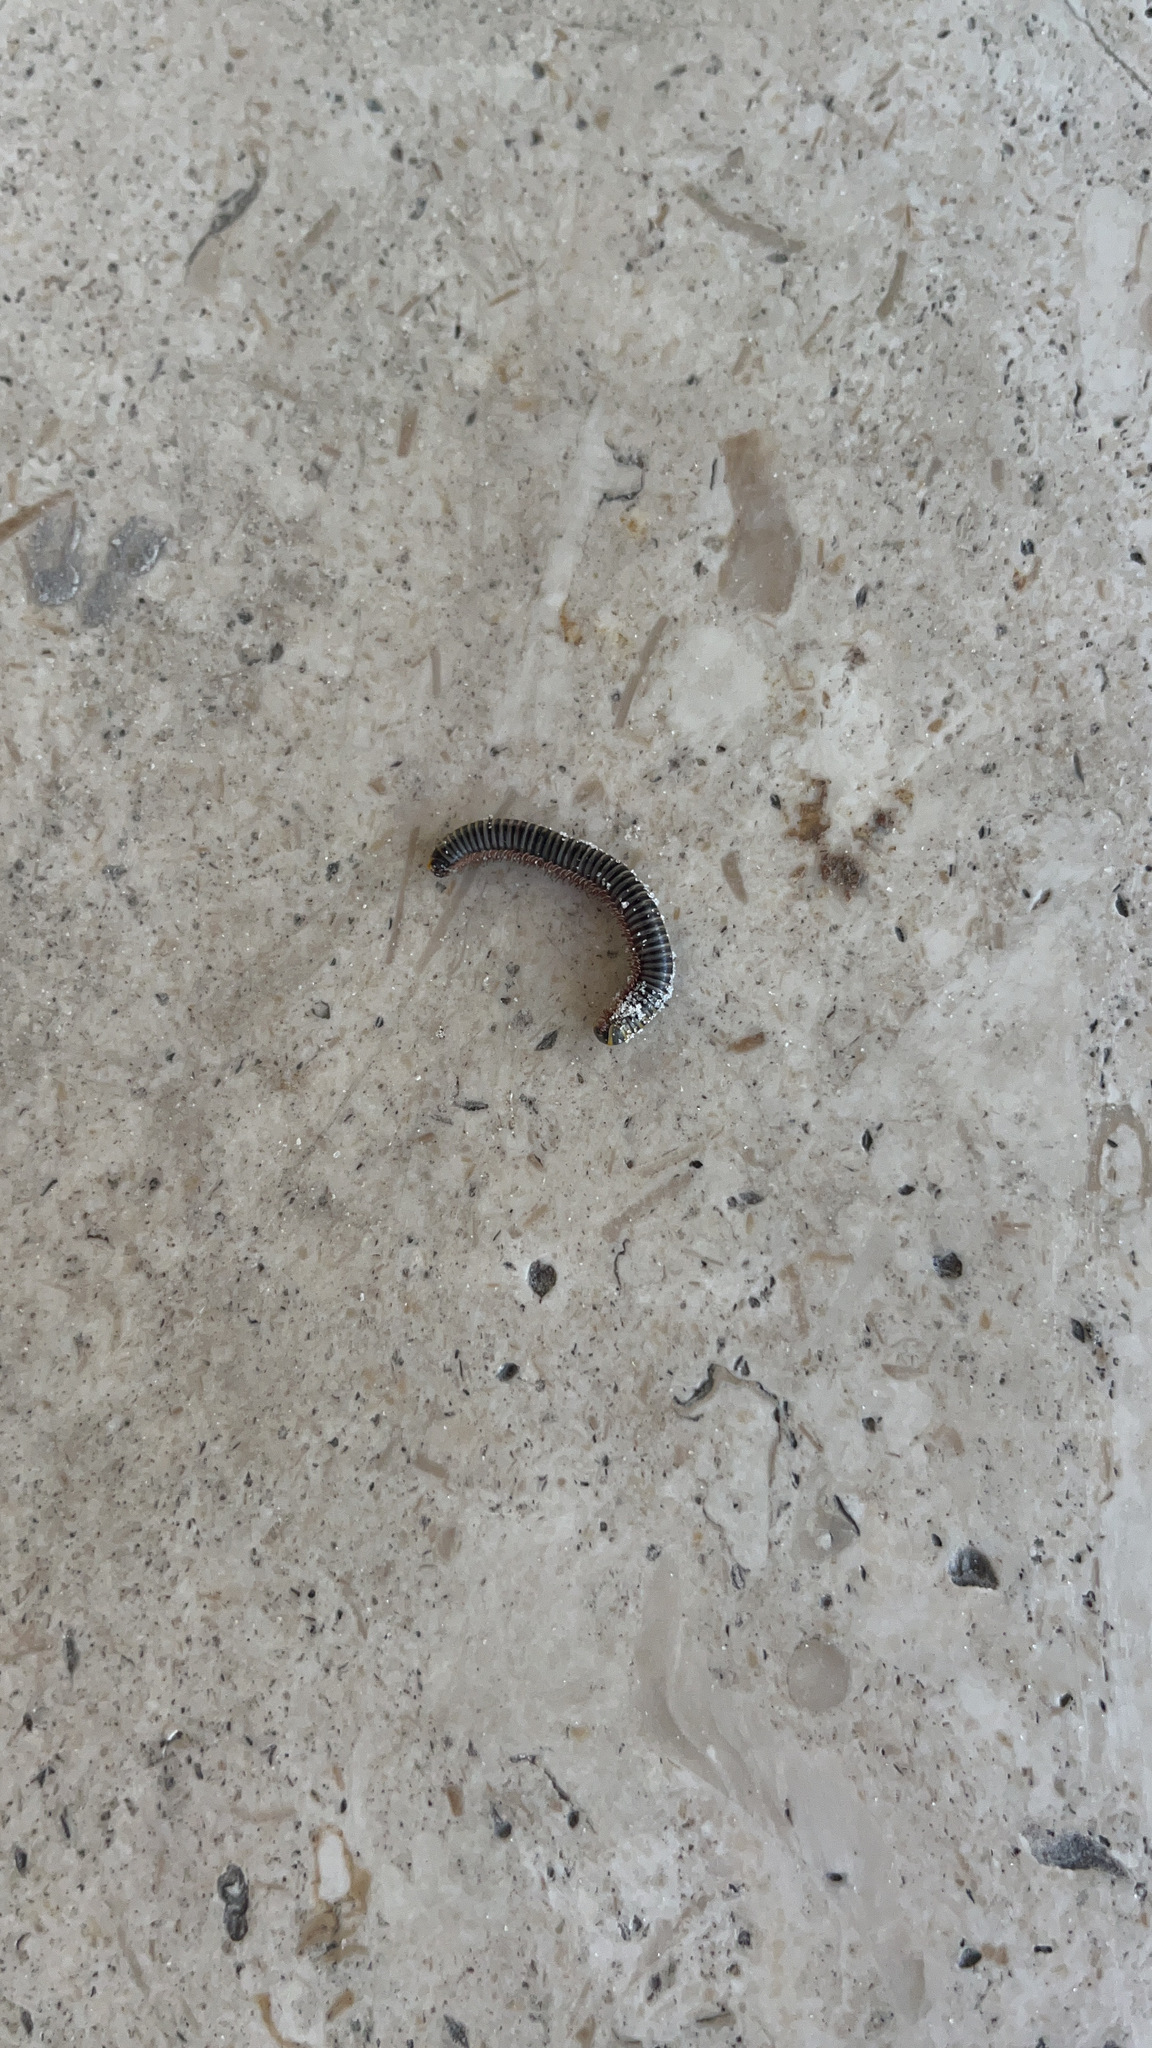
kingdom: Animalia
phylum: Arthropoda
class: Diplopoda
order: Spirobolida
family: Rhinocricidae
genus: Anadenobolus
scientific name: Anadenobolus monilicornis
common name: Caribbean millipede
